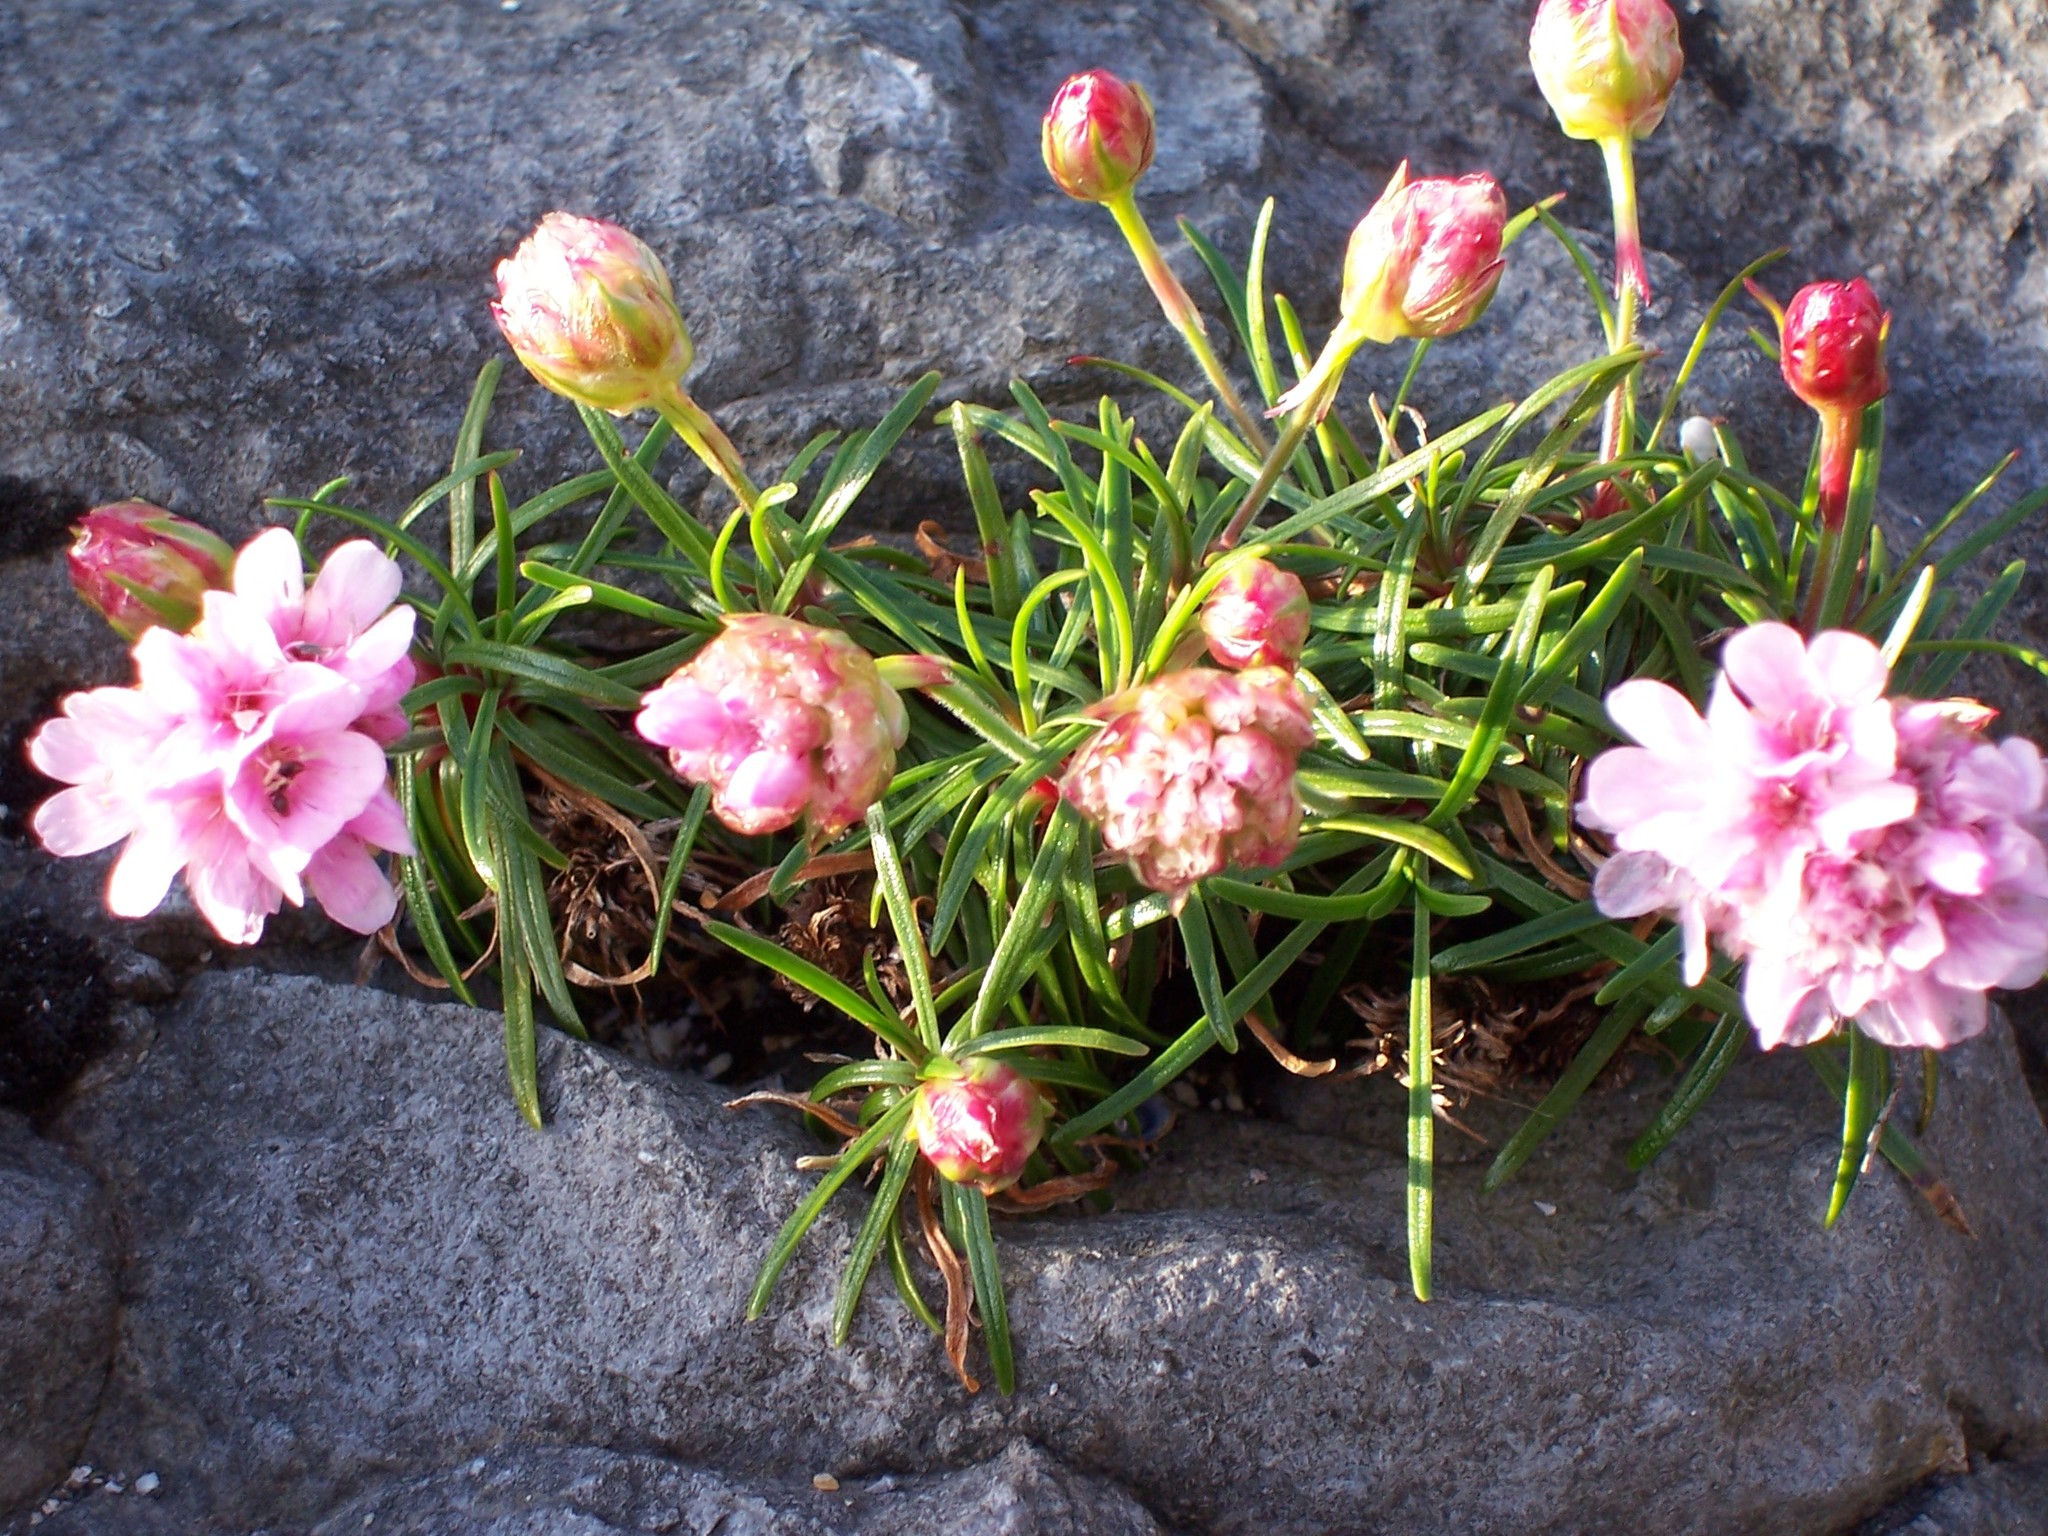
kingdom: Plantae
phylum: Tracheophyta
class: Magnoliopsida
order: Caryophyllales
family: Plumbaginaceae
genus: Armeria
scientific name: Armeria maritima
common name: Thrift
